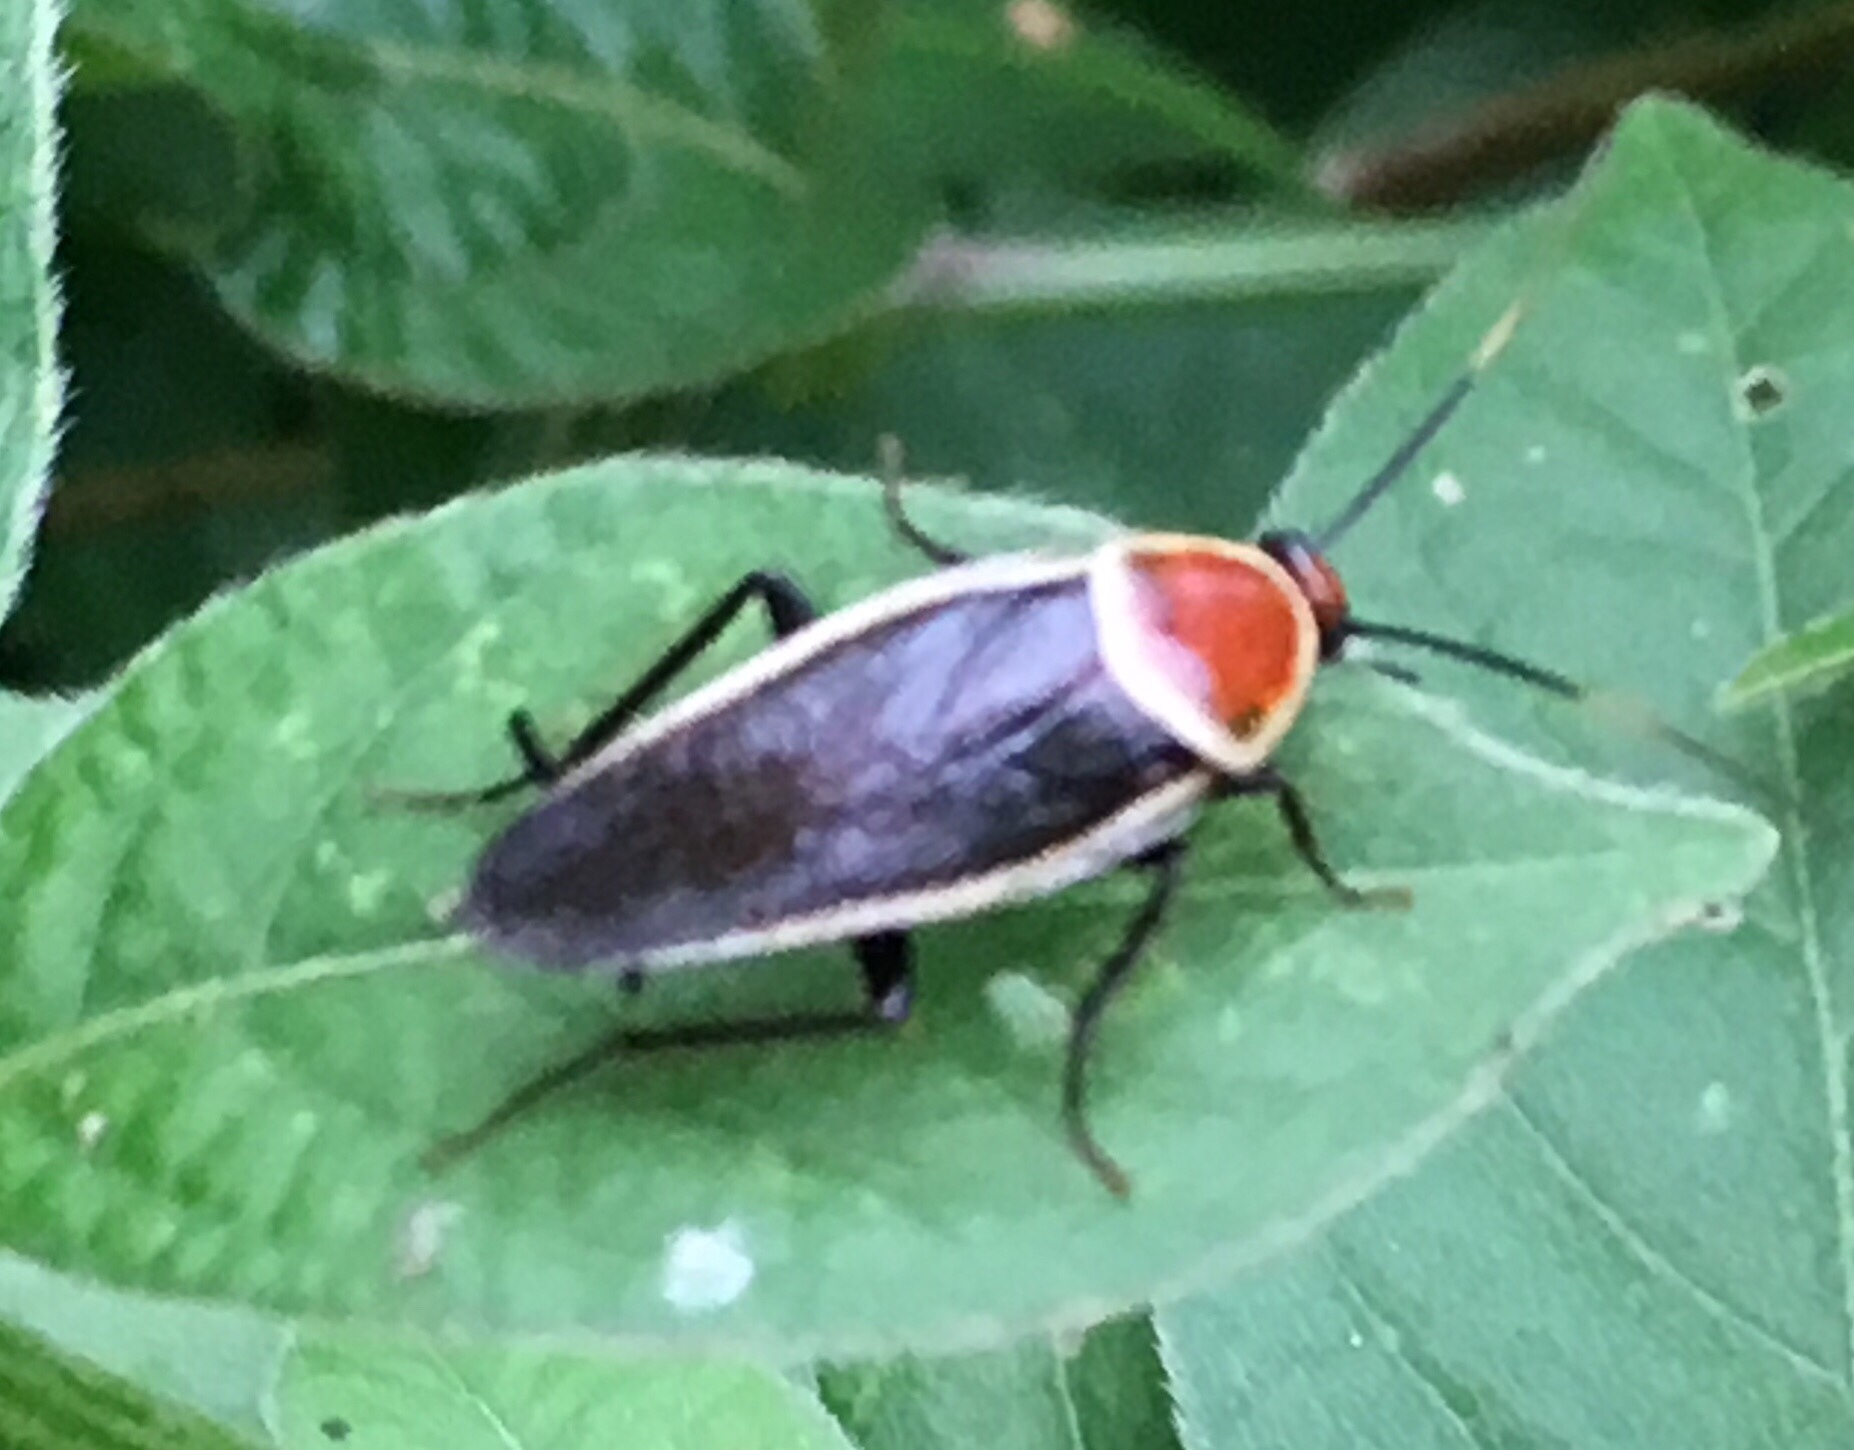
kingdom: Animalia
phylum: Arthropoda
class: Insecta
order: Blattodea
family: Ectobiidae
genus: Pseudomops
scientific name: Pseudomops septentrionalis
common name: Pale-bordered field cockroach
